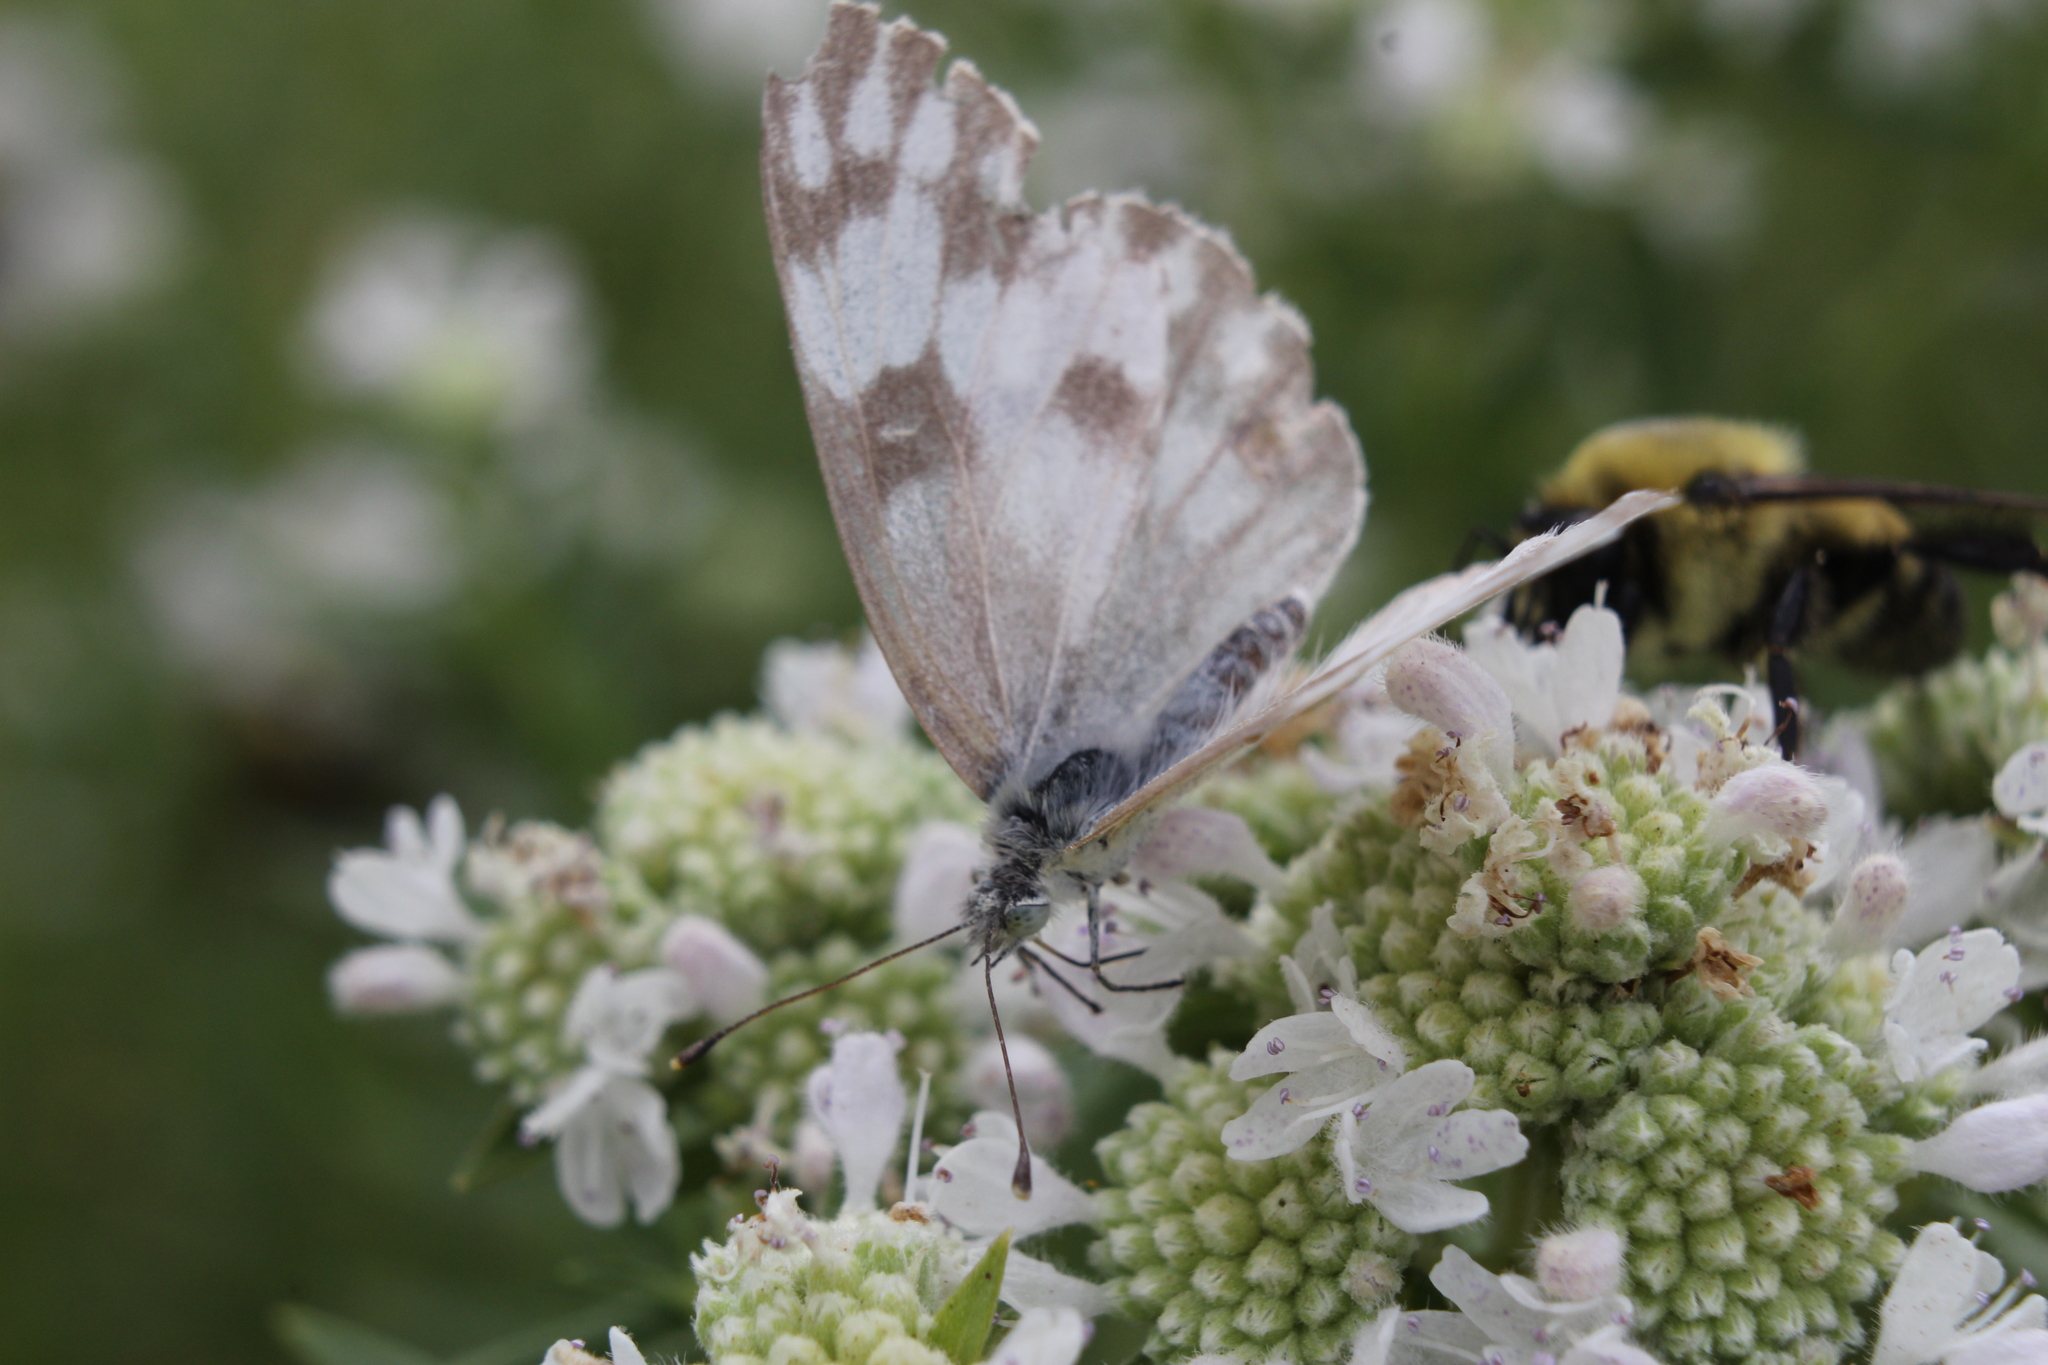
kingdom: Animalia
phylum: Arthropoda
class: Insecta
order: Lepidoptera
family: Pieridae
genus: Pontia
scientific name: Pontia protodice
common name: Checkered white
